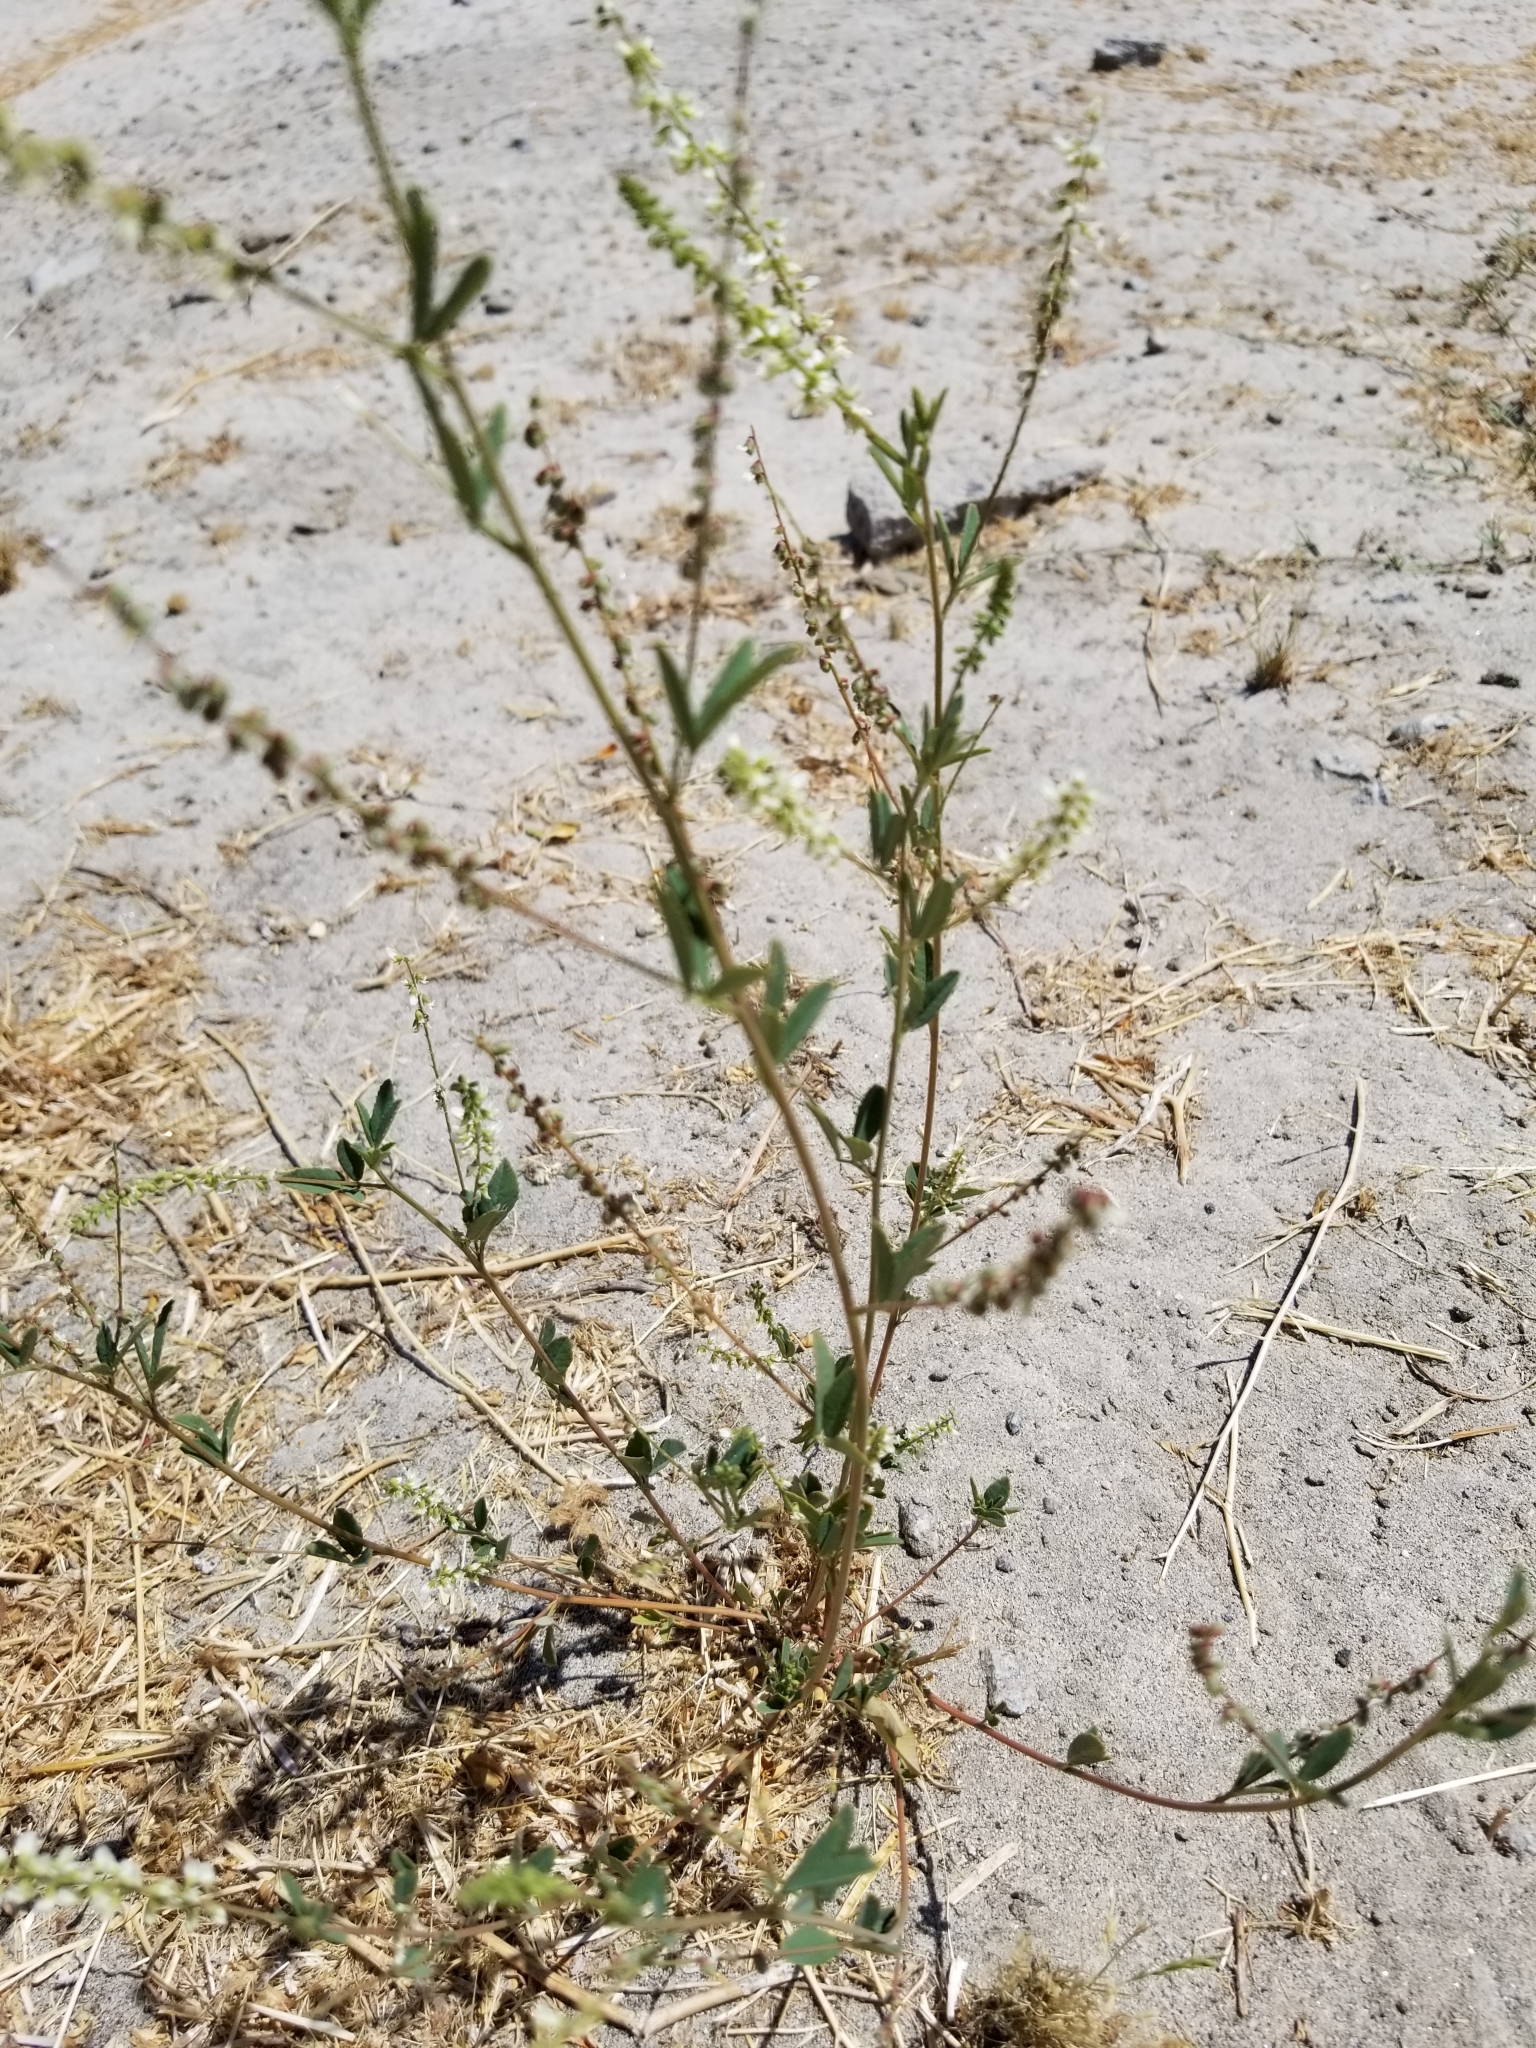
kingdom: Plantae
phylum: Tracheophyta
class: Magnoliopsida
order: Fabales
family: Fabaceae
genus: Melilotus
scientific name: Melilotus albus
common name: White melilot
